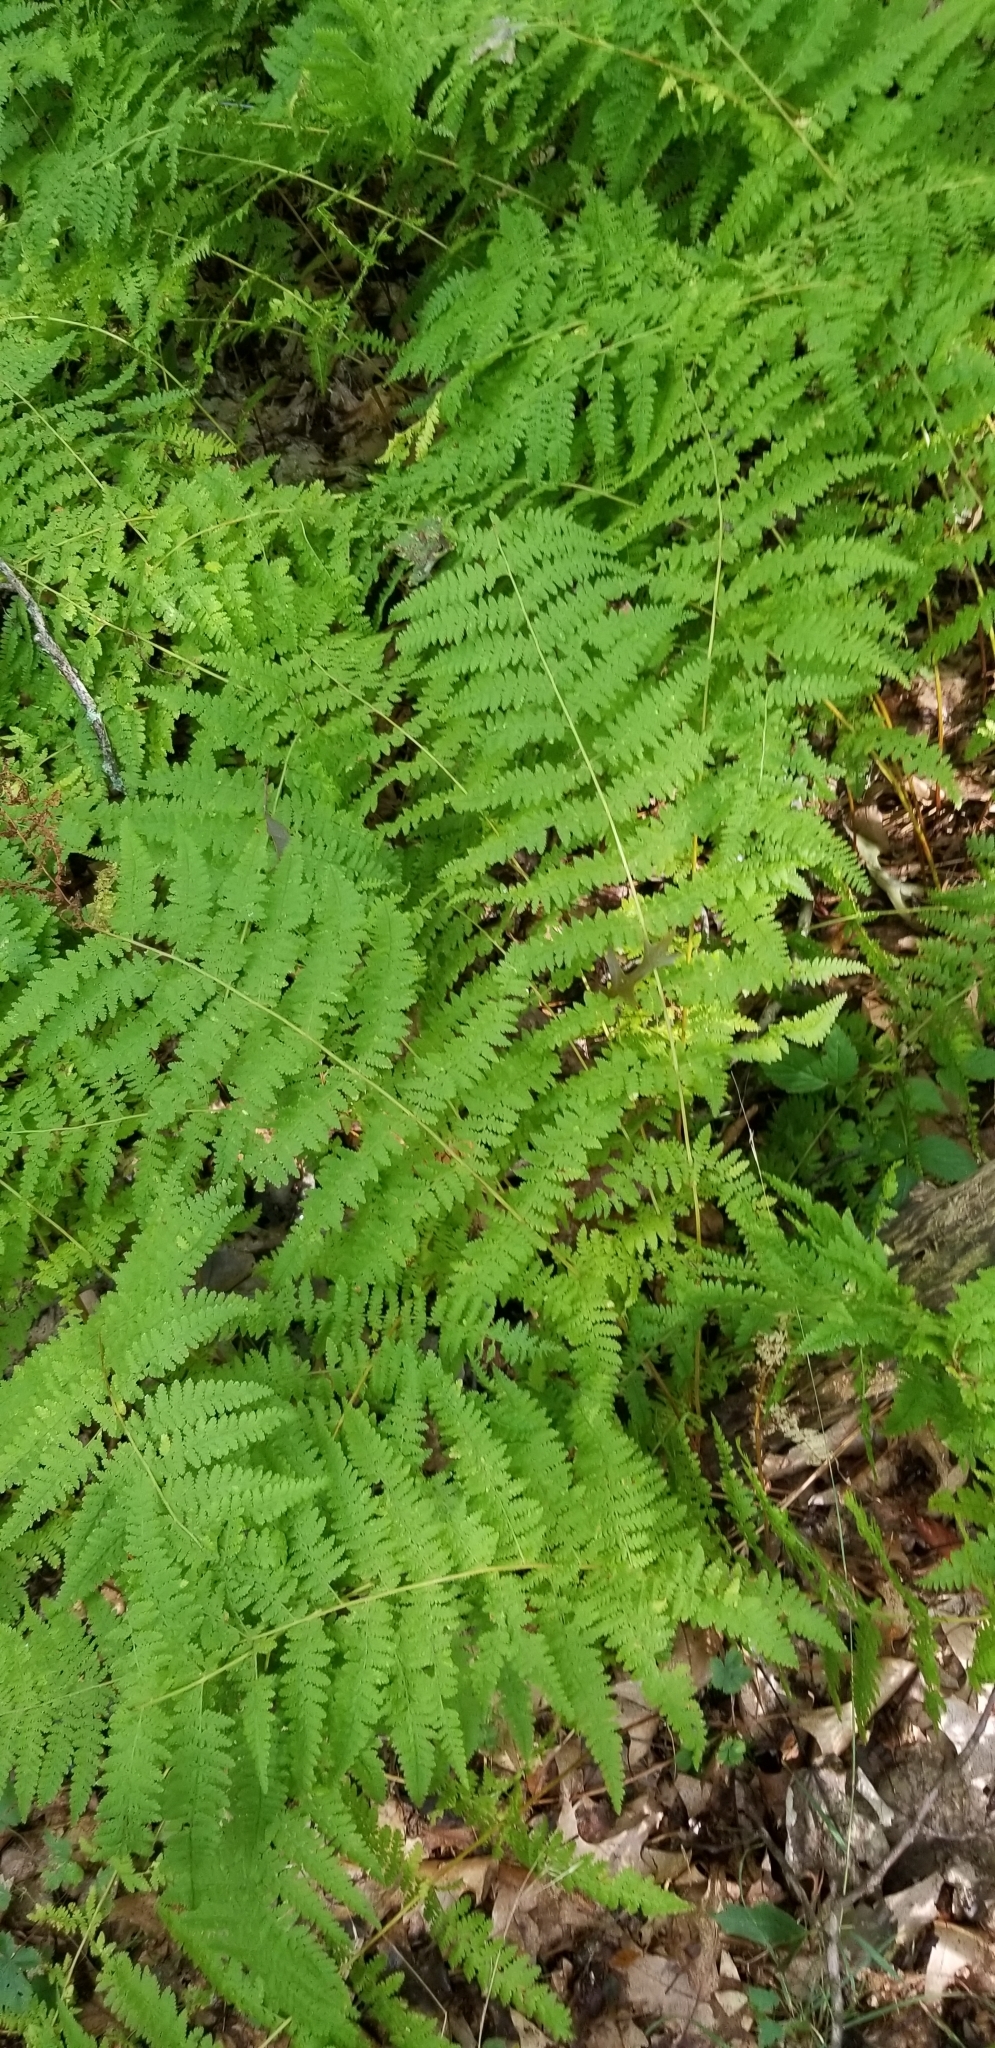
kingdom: Plantae
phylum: Tracheophyta
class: Polypodiopsida
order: Polypodiales
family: Dennstaedtiaceae
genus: Sitobolium
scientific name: Sitobolium punctilobum
